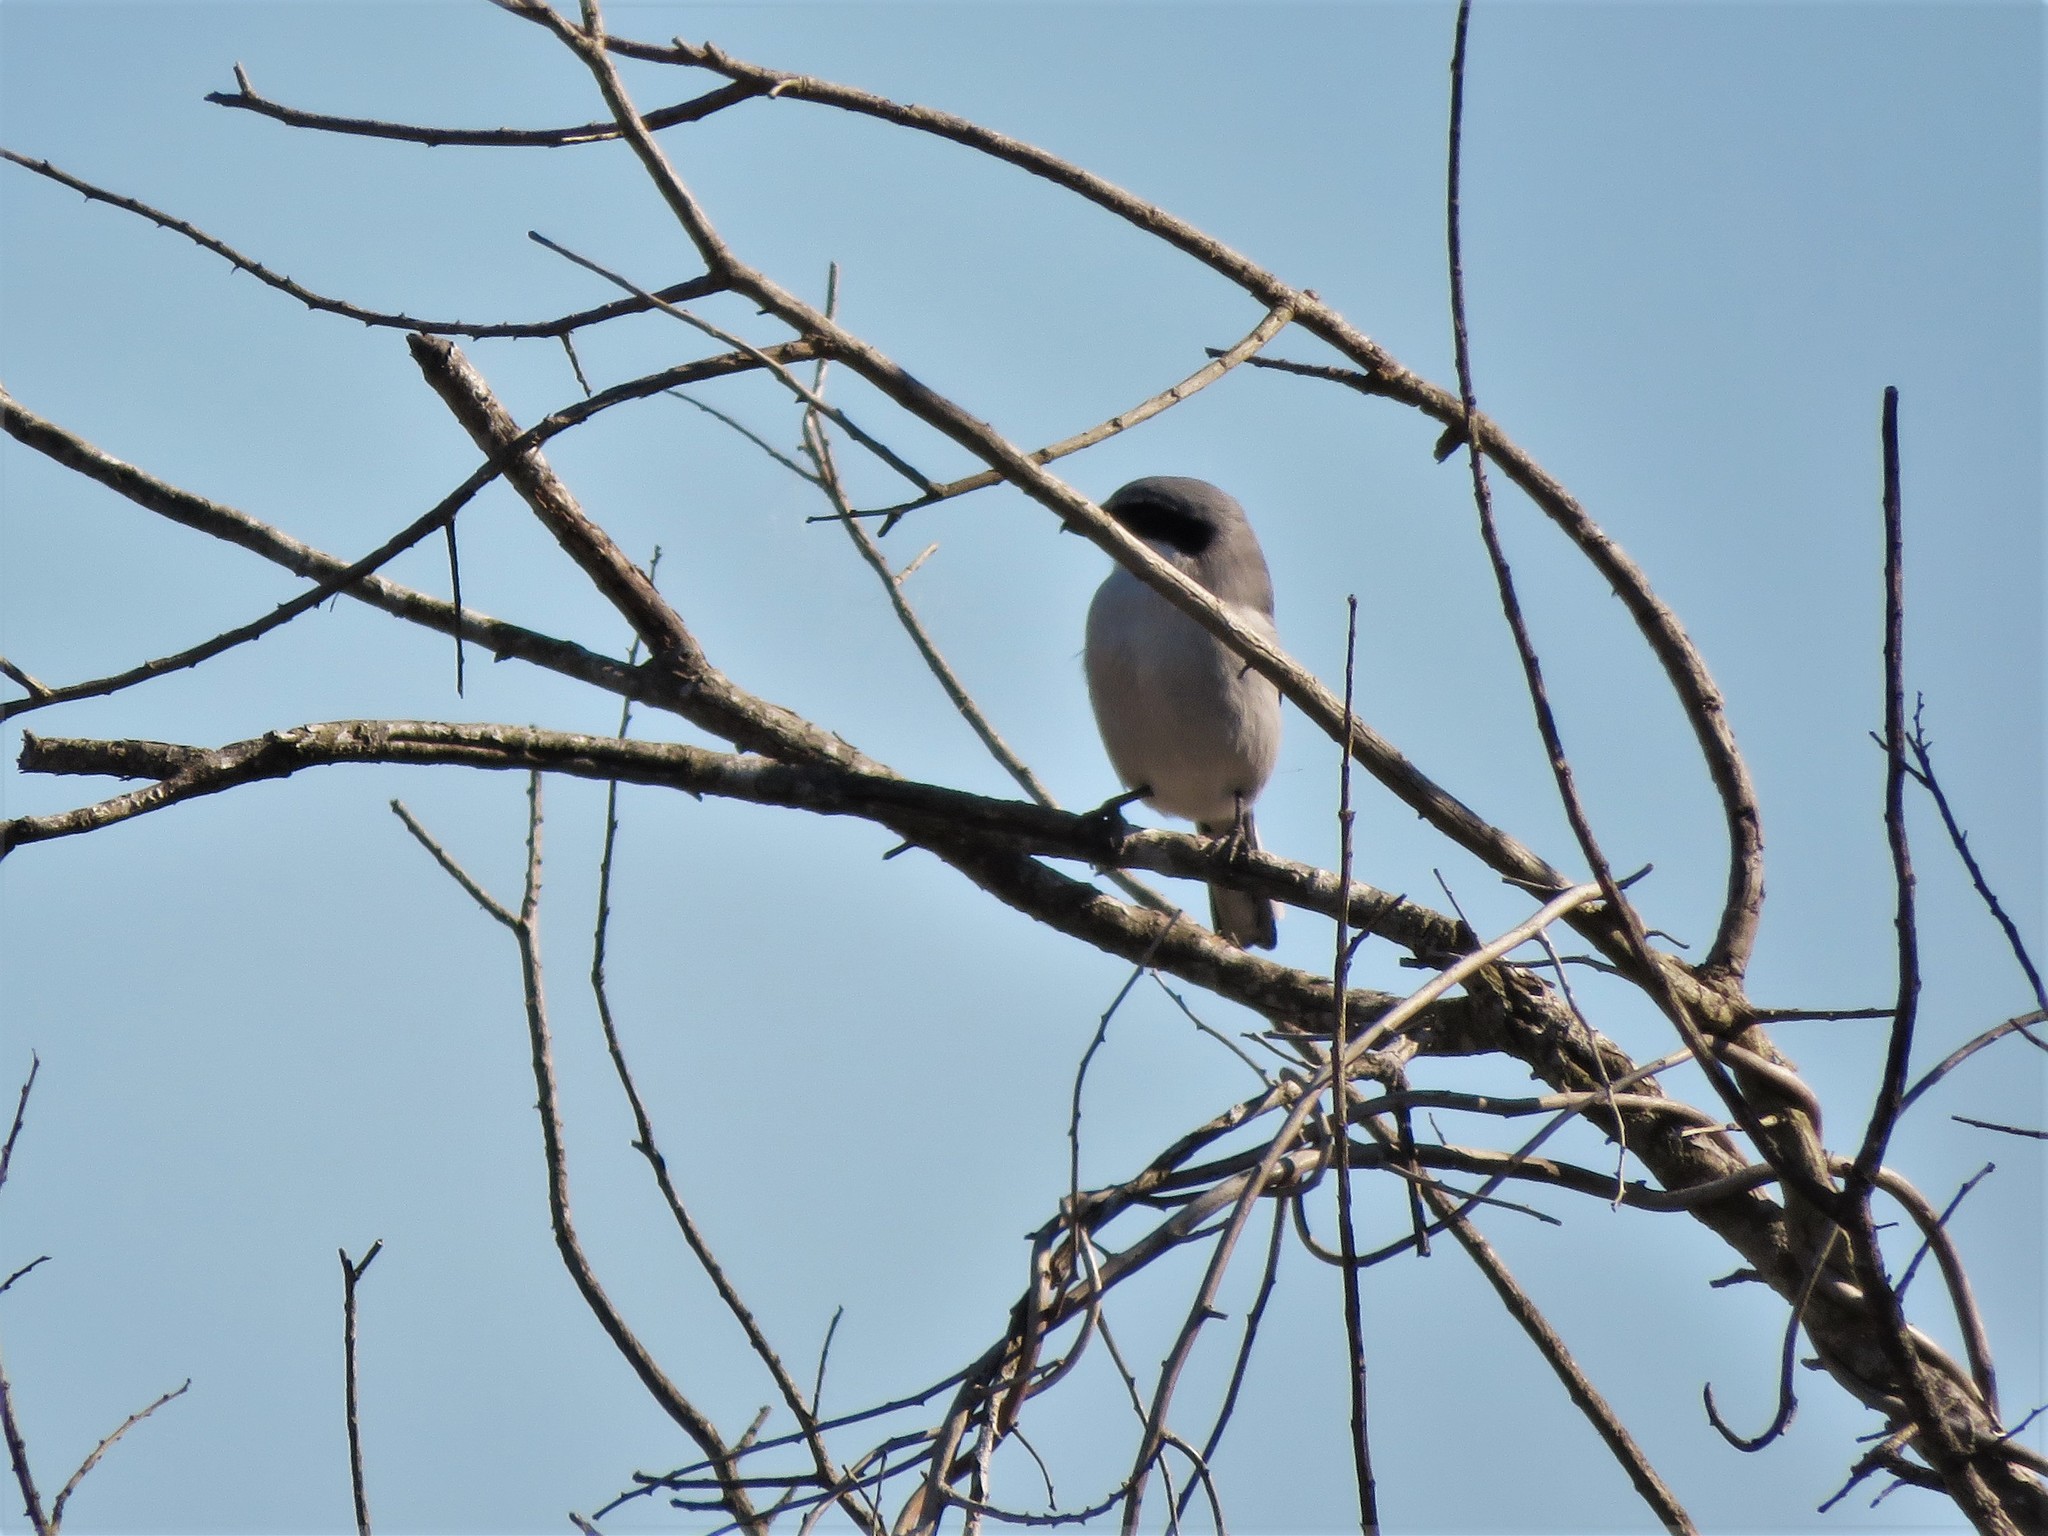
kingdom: Animalia
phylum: Chordata
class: Aves
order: Passeriformes
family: Laniidae
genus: Lanius
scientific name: Lanius ludovicianus
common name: Loggerhead shrike
